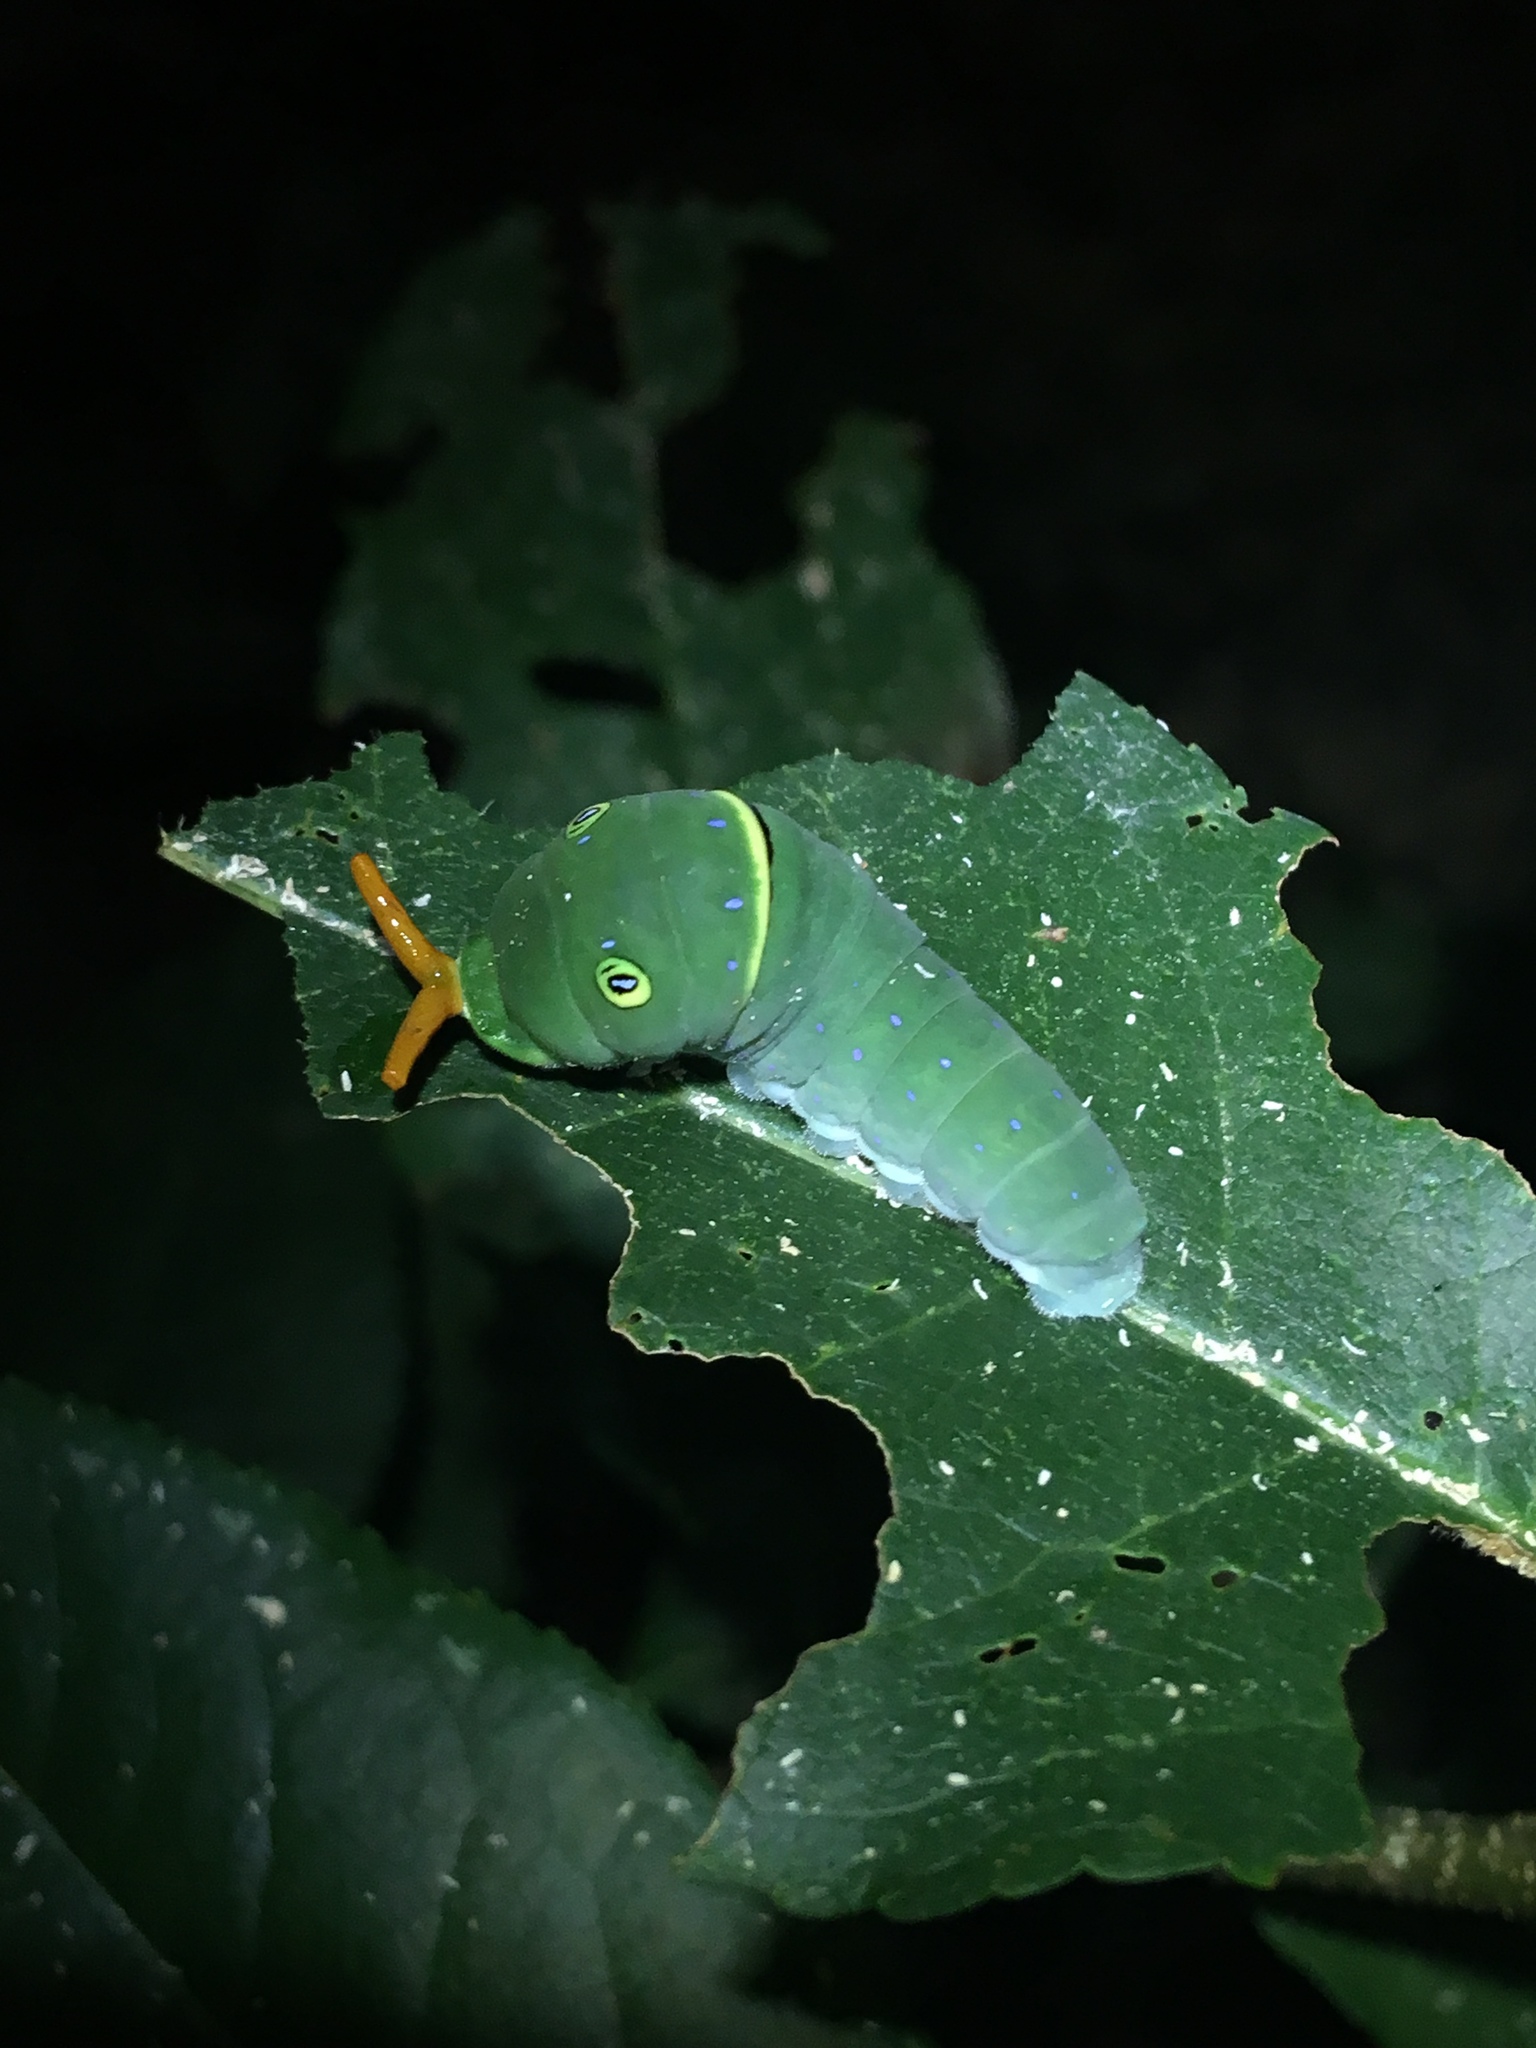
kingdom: Animalia
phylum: Arthropoda
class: Insecta
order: Lepidoptera
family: Papilionidae
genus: Papilio
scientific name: Papilio glaucus
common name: Tiger swallowtail
